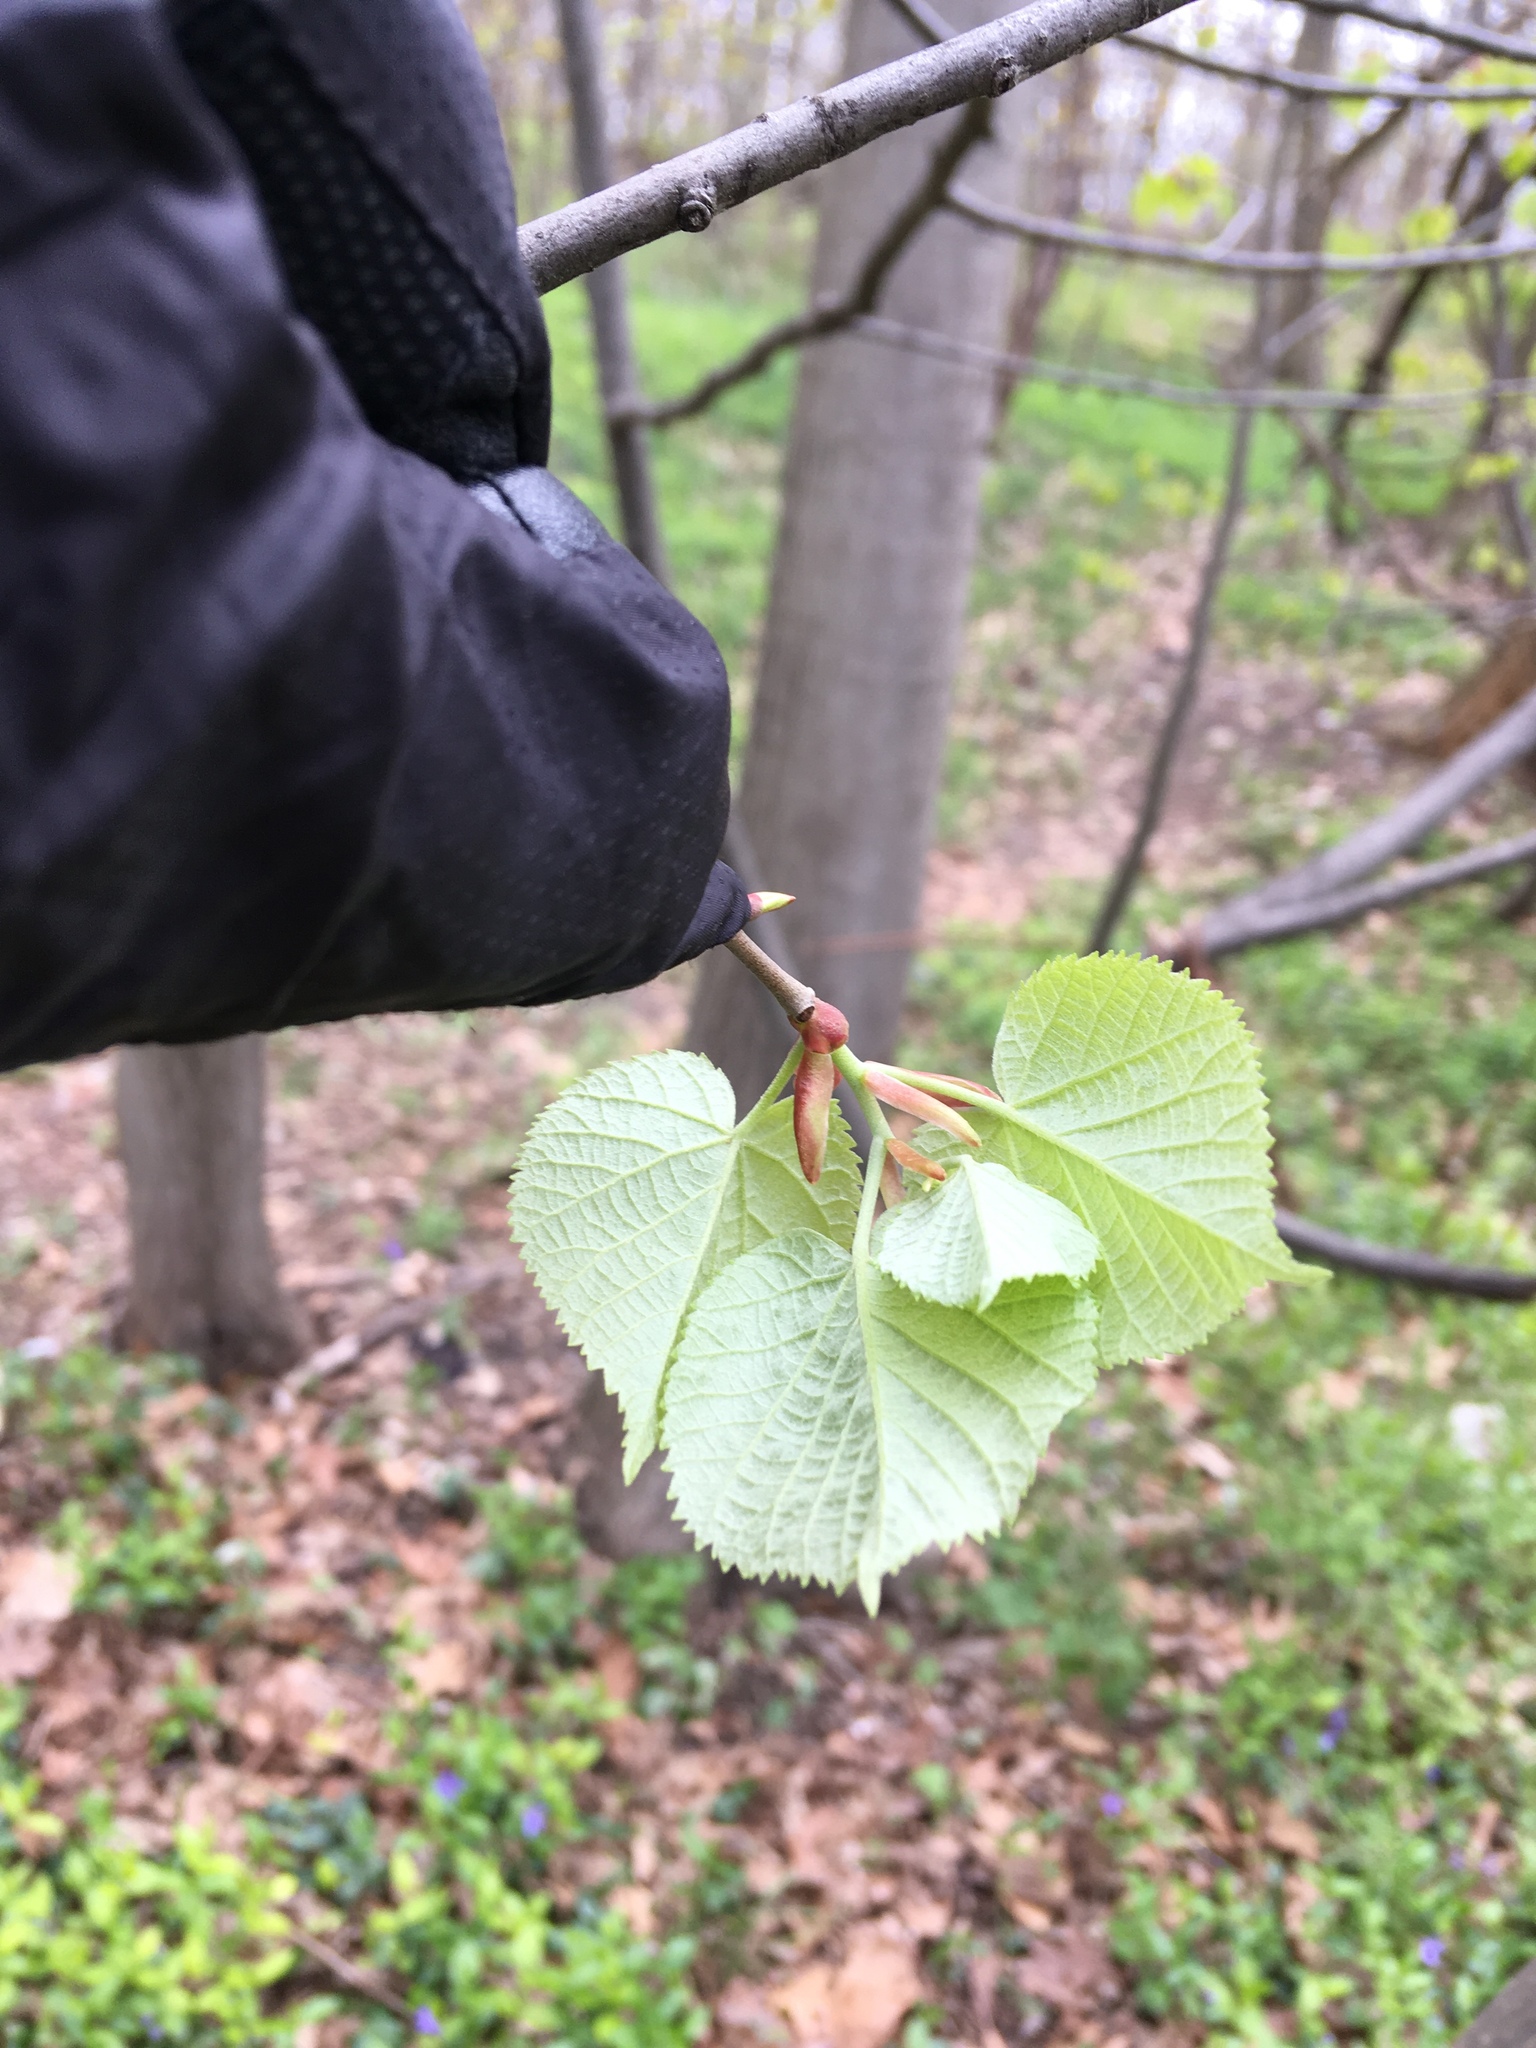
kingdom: Plantae
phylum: Tracheophyta
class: Magnoliopsida
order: Malvales
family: Malvaceae
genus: Tilia
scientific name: Tilia cordata
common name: Small-leaved lime
